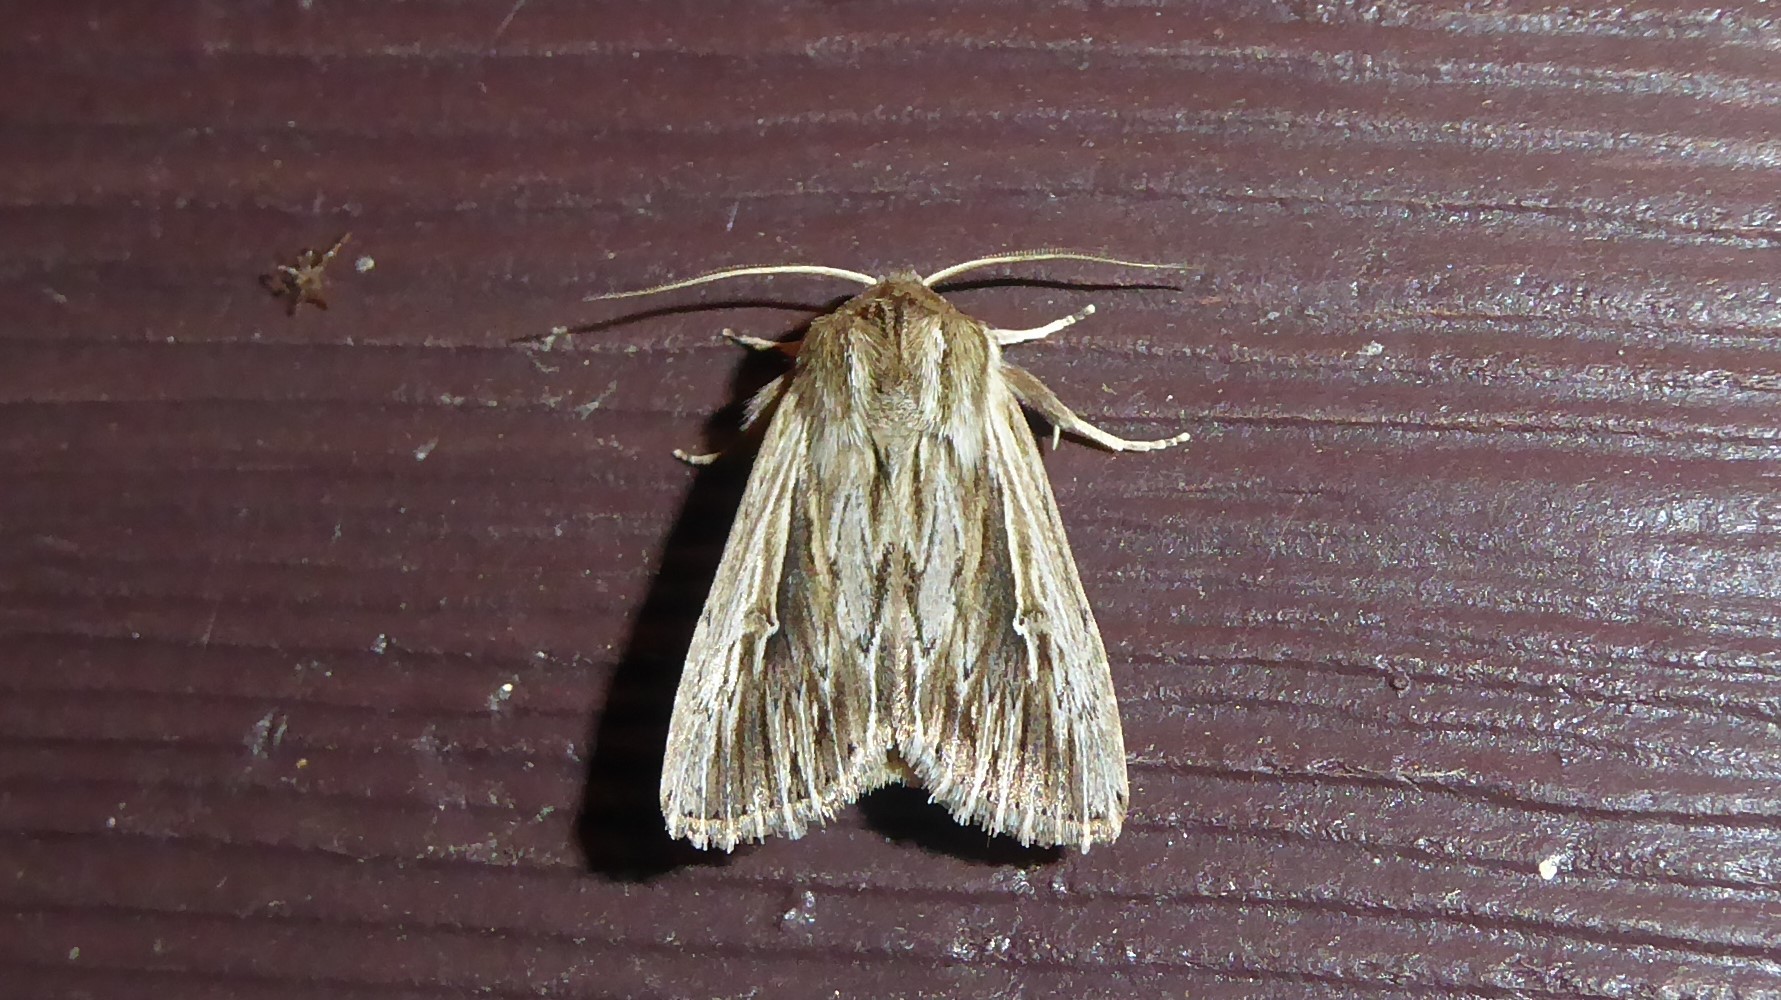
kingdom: Animalia
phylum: Arthropoda
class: Insecta
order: Lepidoptera
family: Noctuidae
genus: Persectania
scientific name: Persectania aversa
